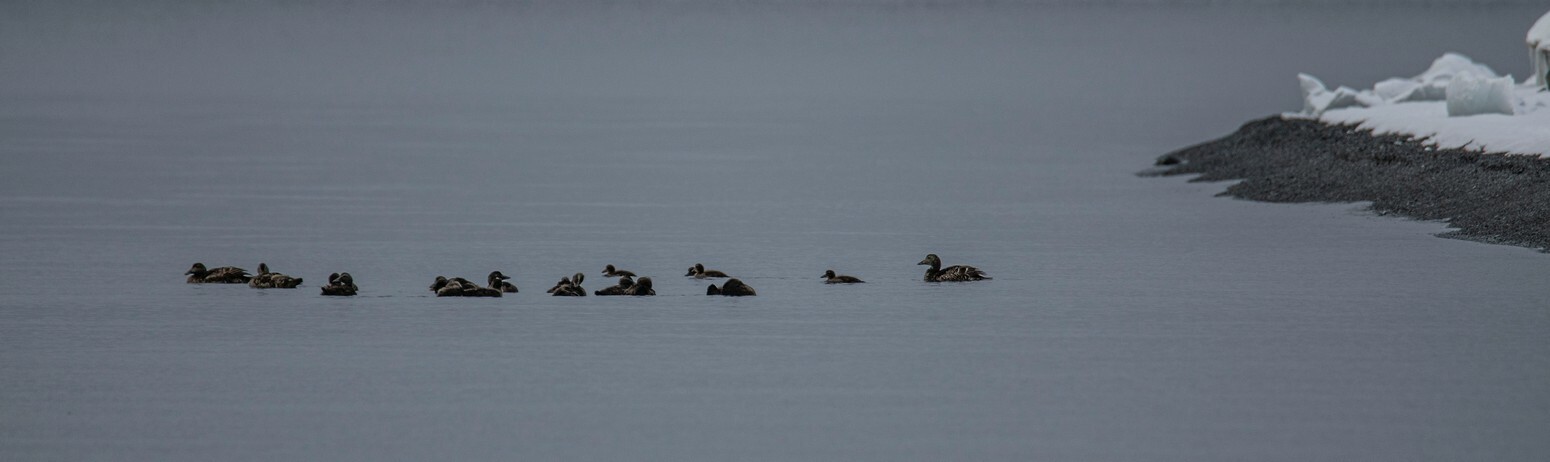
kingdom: Animalia
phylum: Chordata
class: Aves
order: Anseriformes
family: Anatidae
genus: Somateria
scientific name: Somateria mollissima
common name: Common eider
